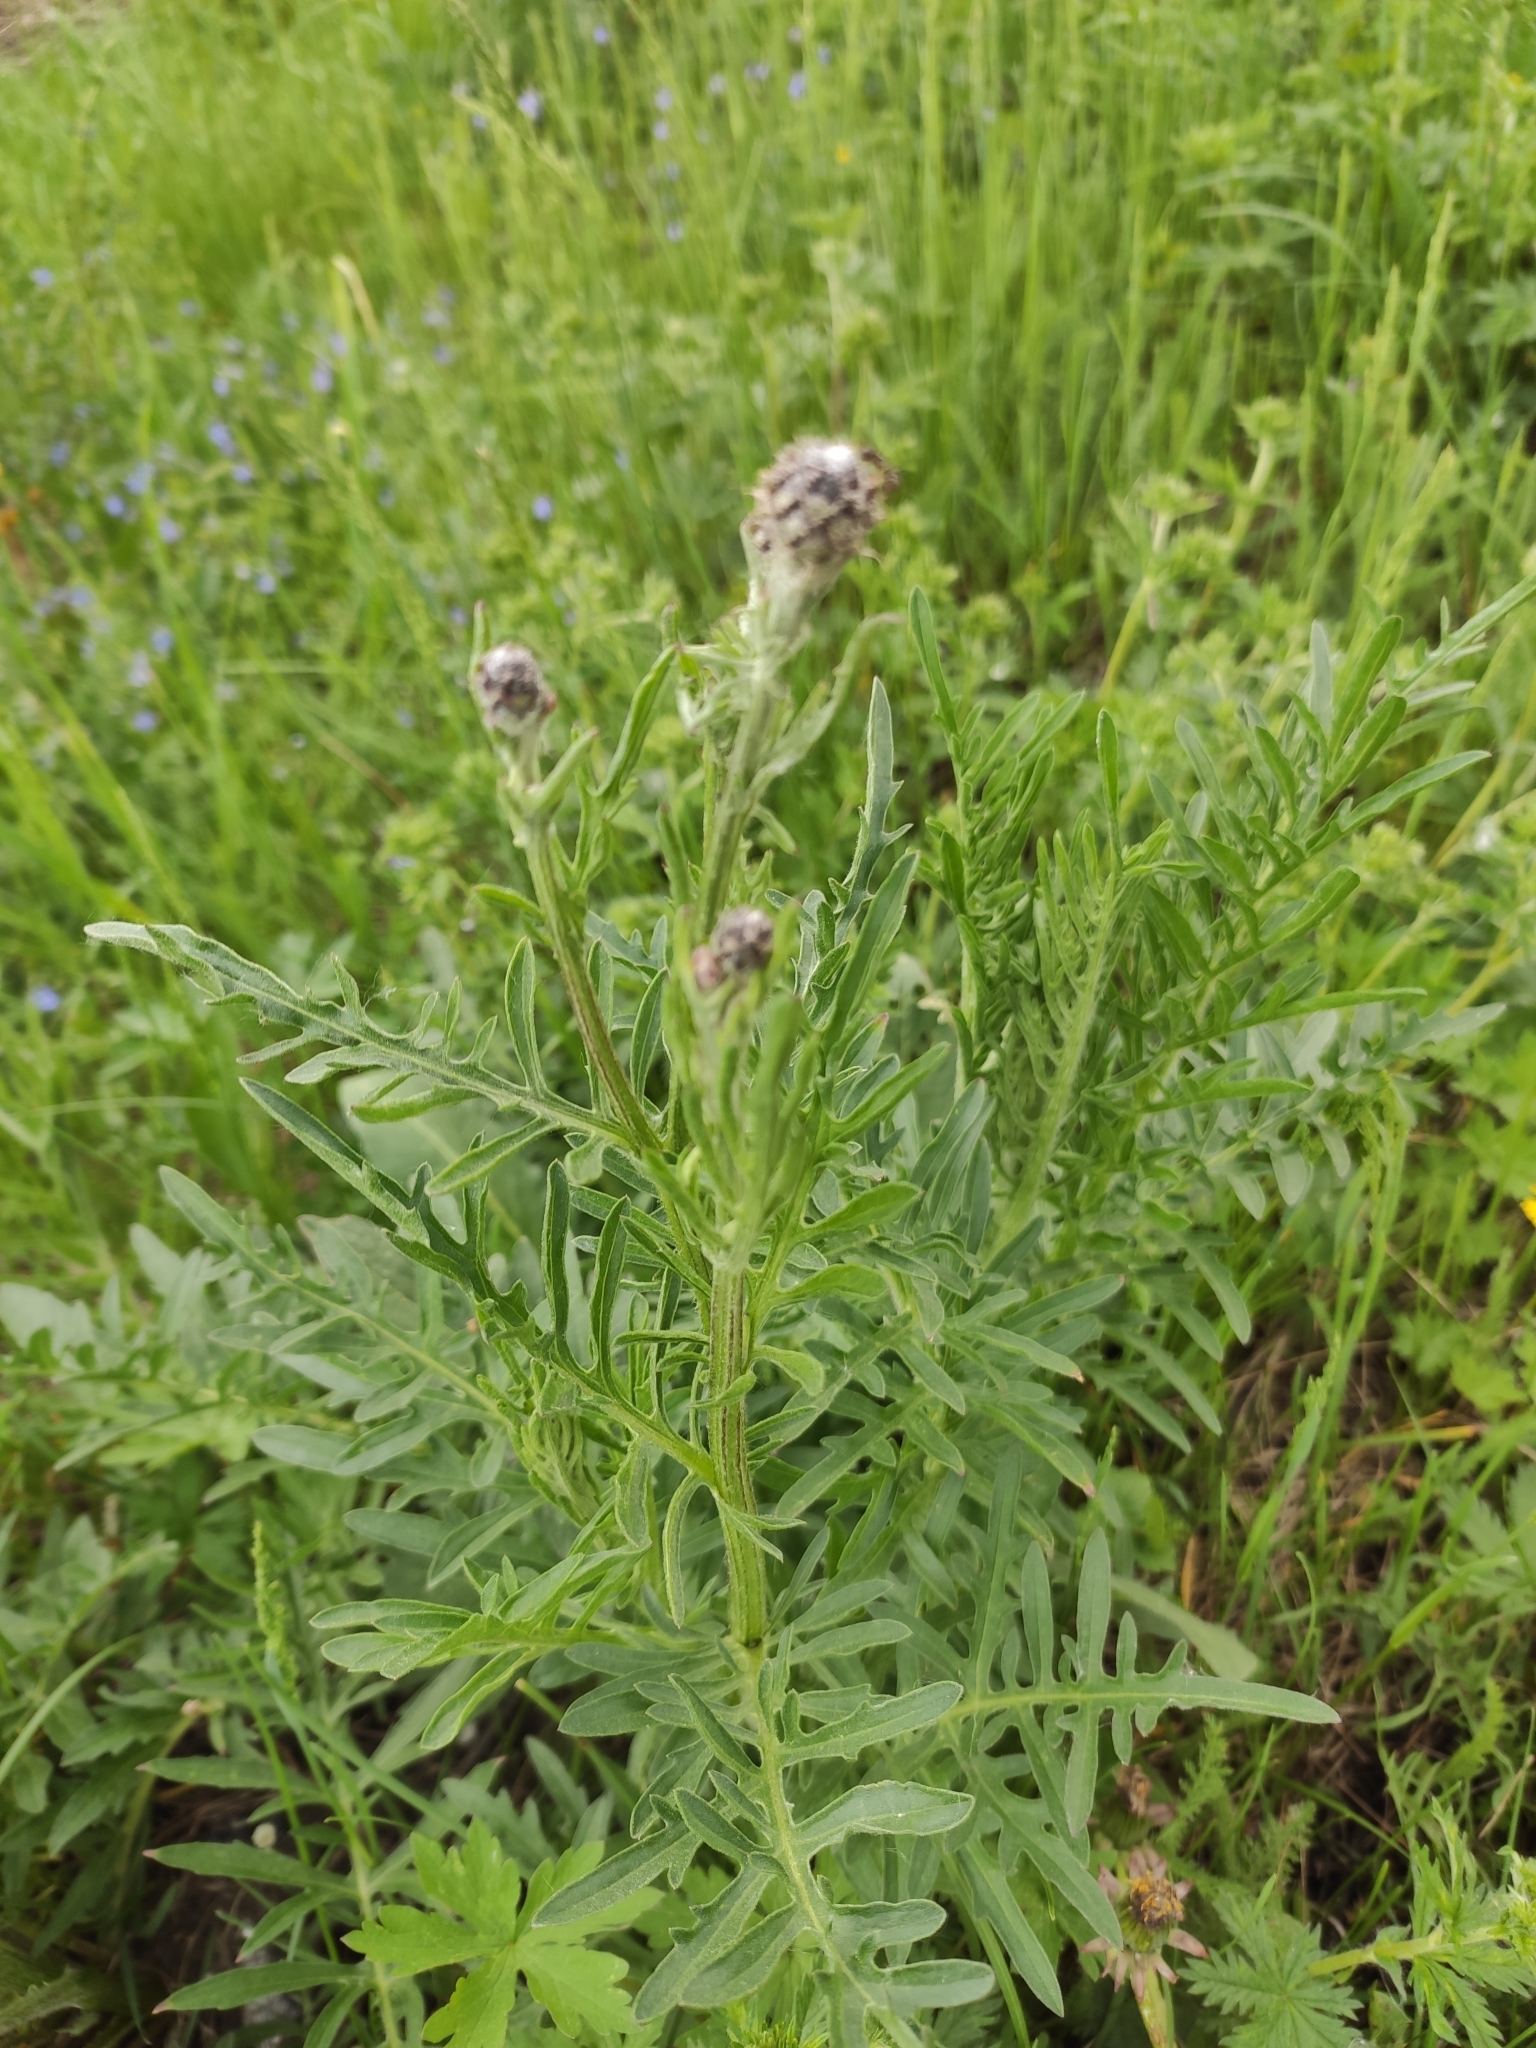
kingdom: Plantae
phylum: Tracheophyta
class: Magnoliopsida
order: Asterales
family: Asteraceae
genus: Centaurea
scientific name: Centaurea scabiosa
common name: Greater knapweed
